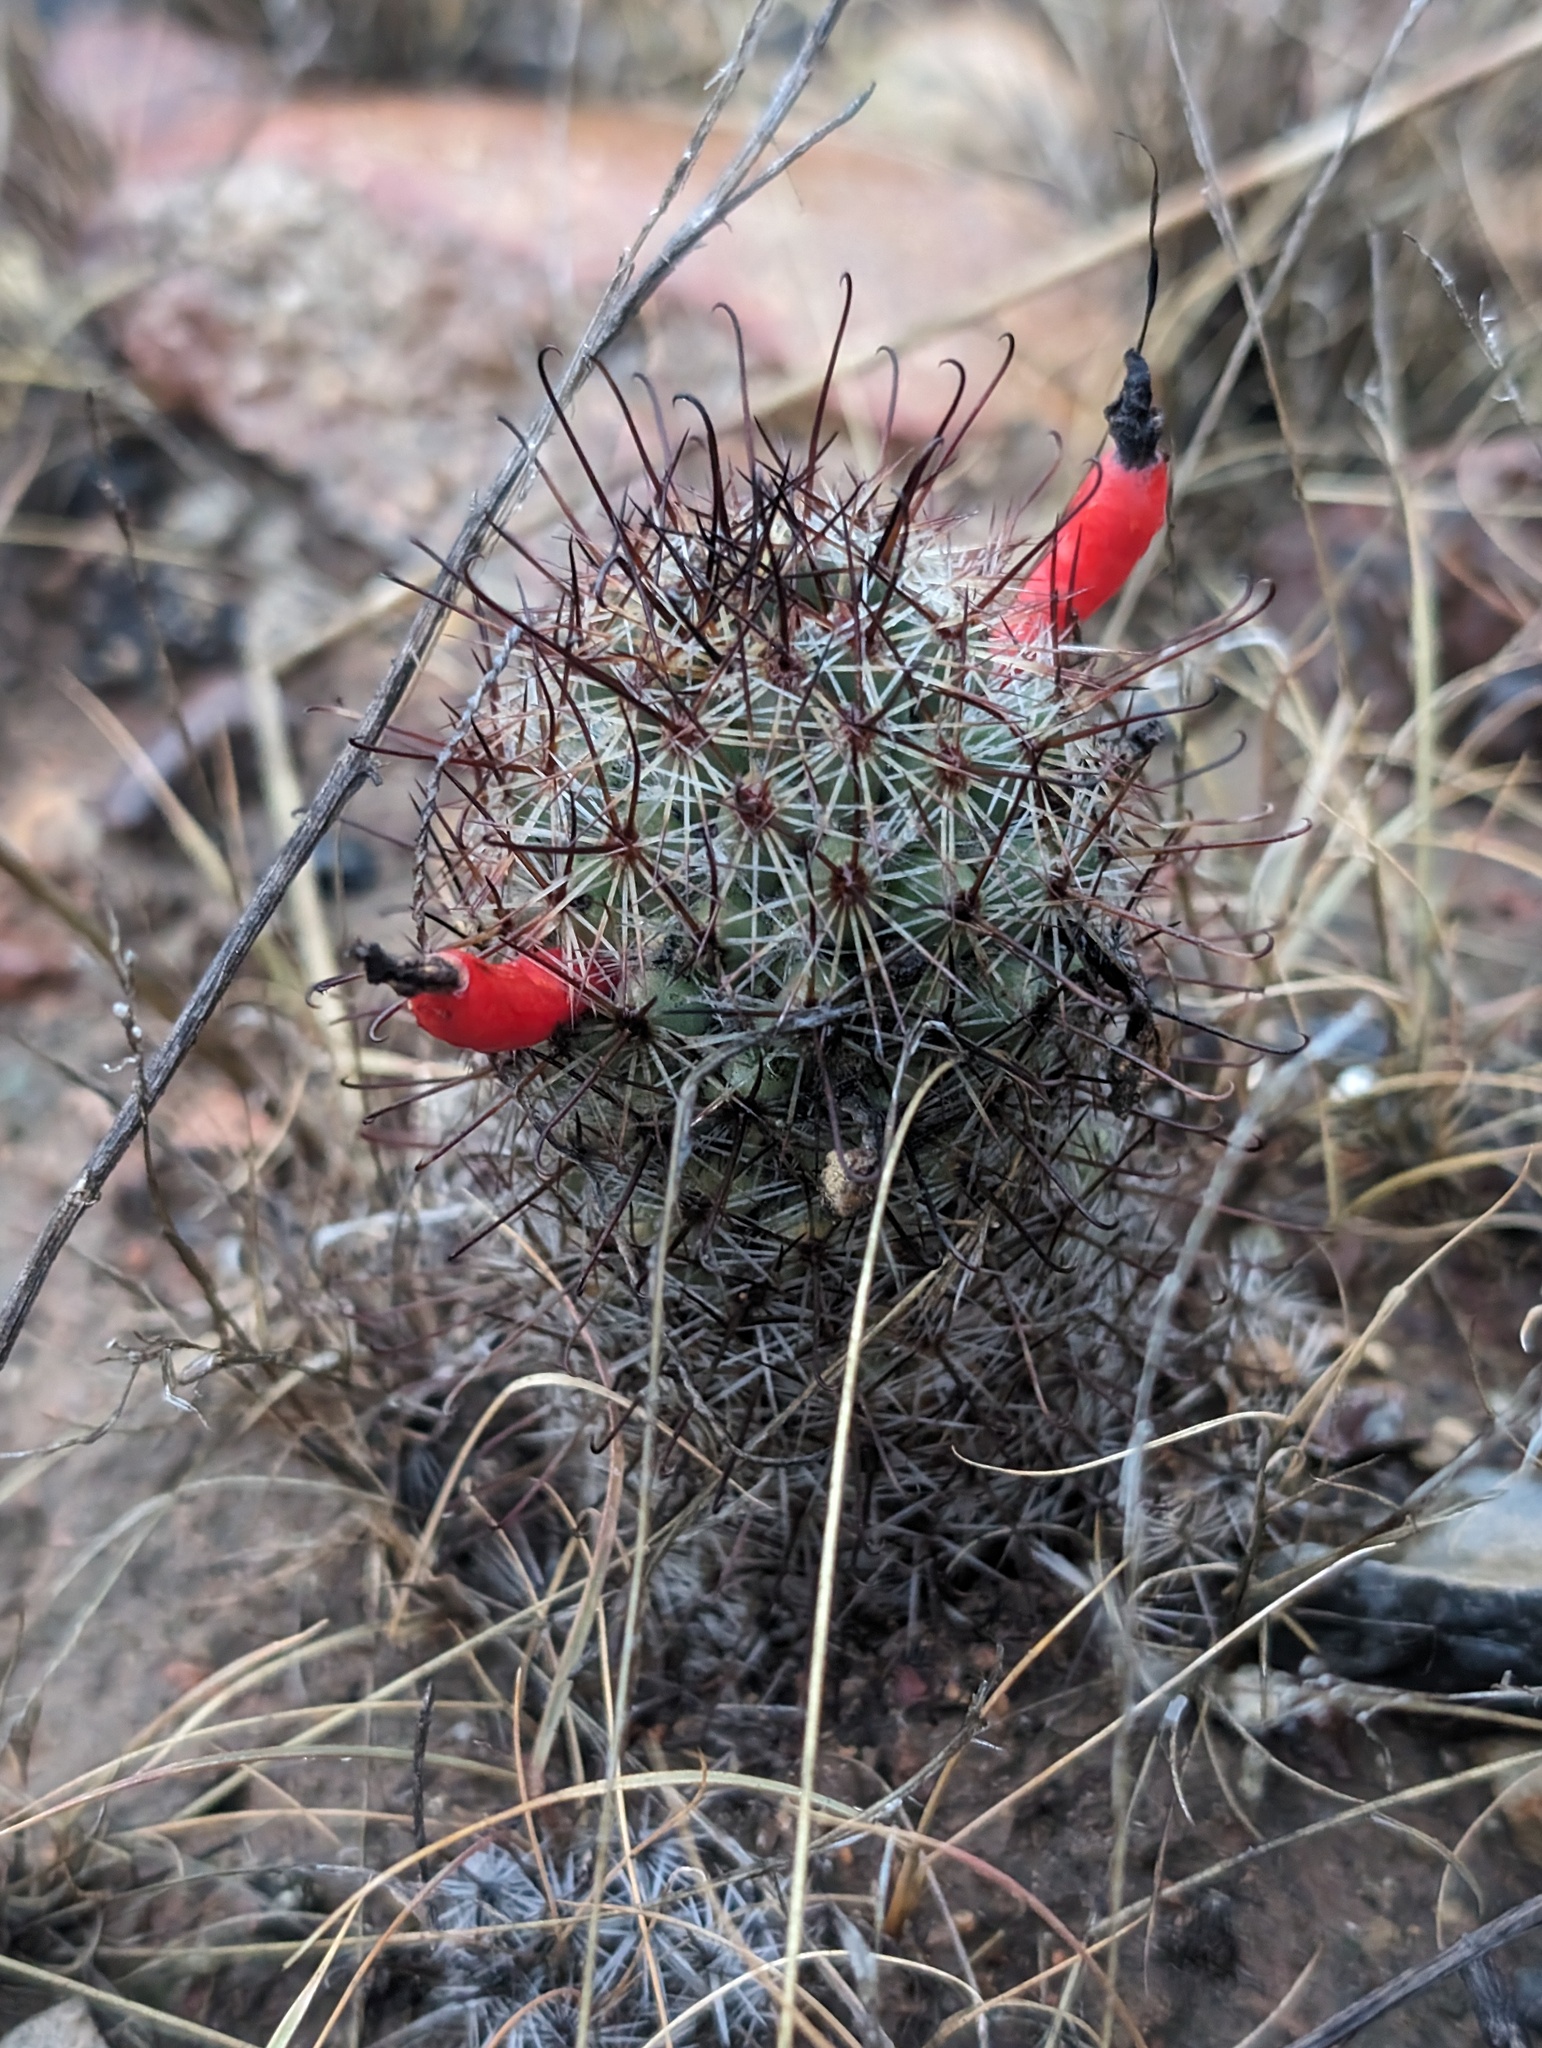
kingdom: Plantae
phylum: Tracheophyta
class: Magnoliopsida
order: Caryophyllales
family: Cactaceae
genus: Cochemiea
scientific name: Cochemiea dioica
